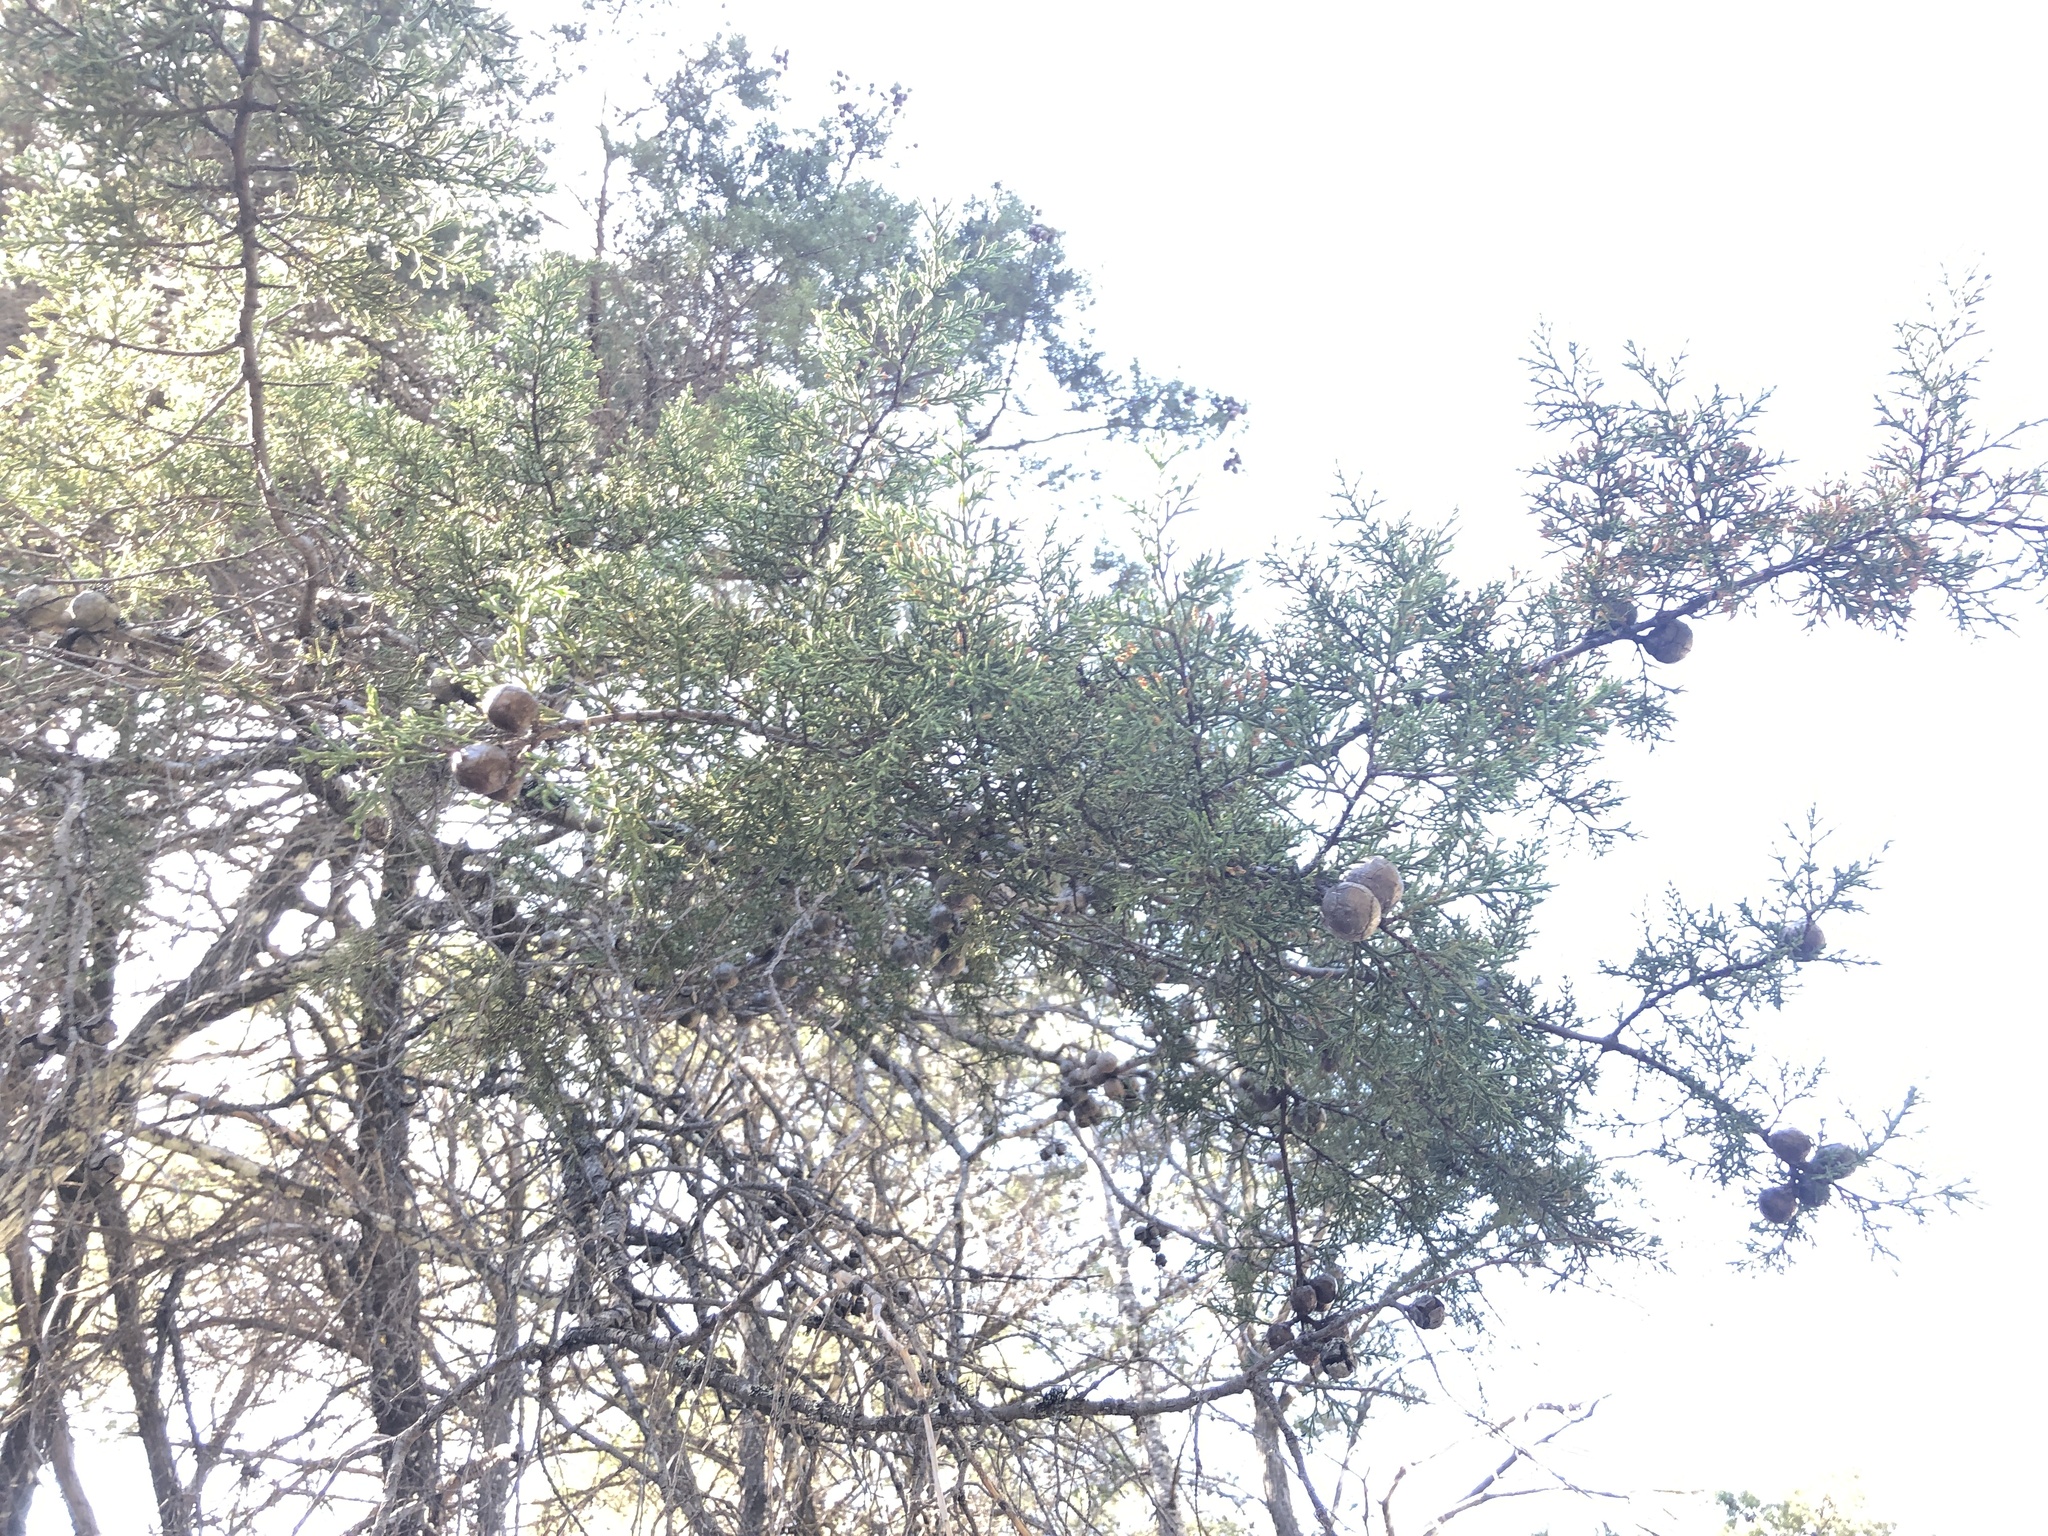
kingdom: Plantae
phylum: Tracheophyta
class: Pinopsida
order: Pinales
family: Cupressaceae
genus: Cupressus
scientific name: Cupressus sargentii
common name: Sargent cypress
